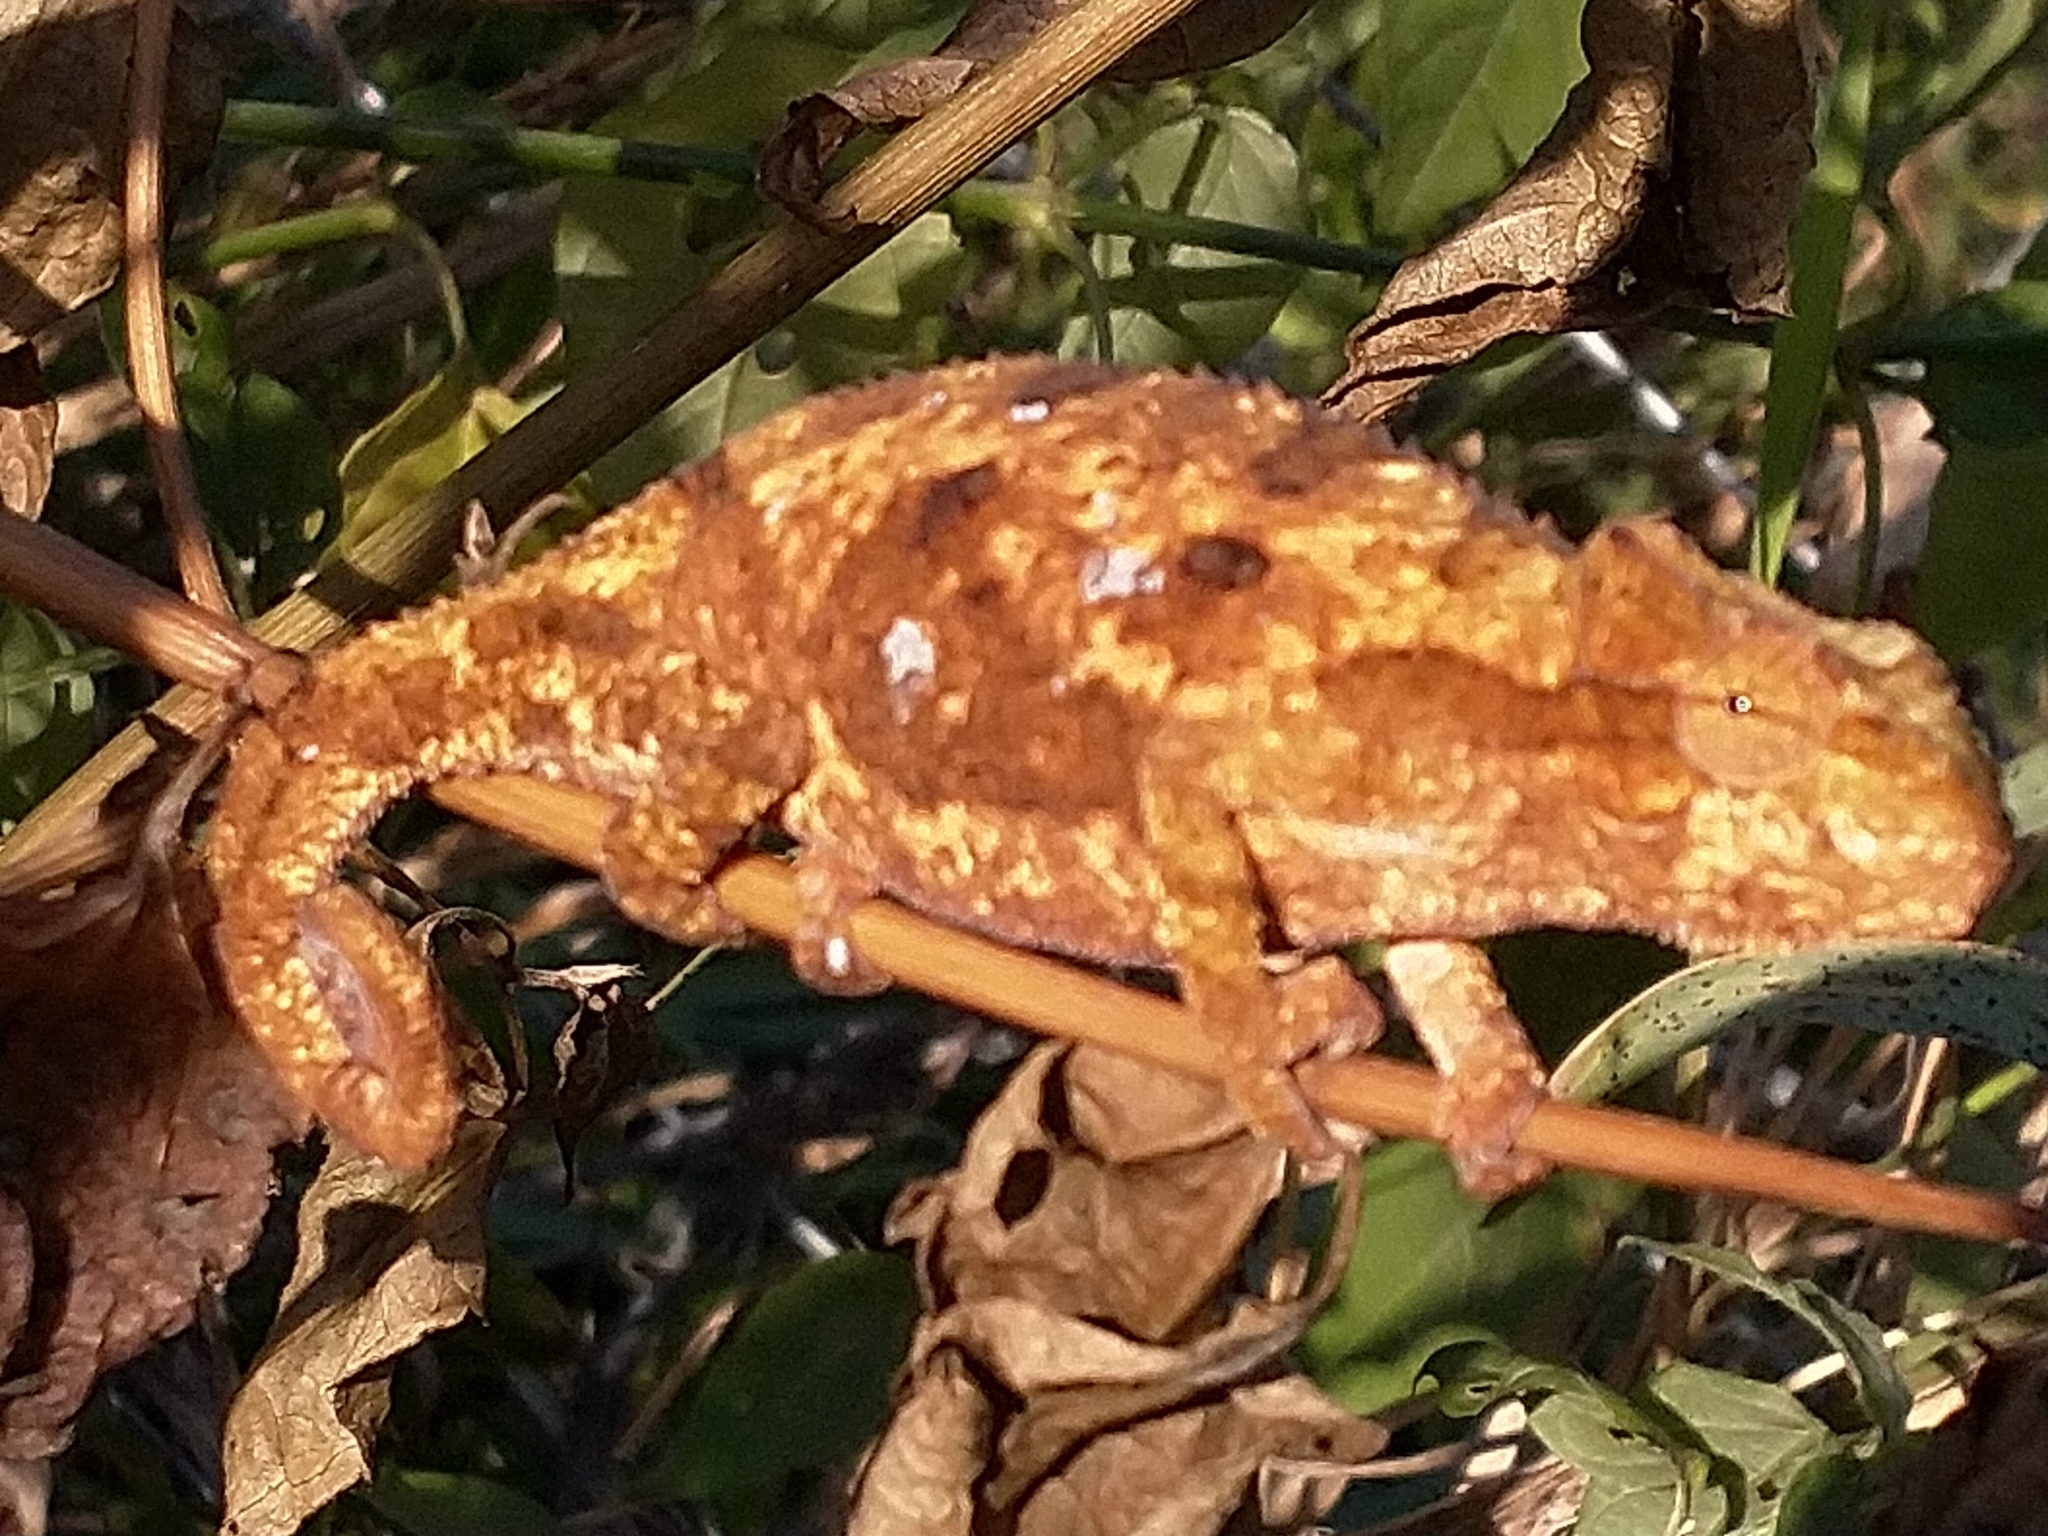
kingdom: Animalia
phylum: Chordata
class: Squamata
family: Chamaeleonidae
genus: Bradypodion
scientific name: Bradypodion melanocephalum
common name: Black-headed dwarf chameleon
